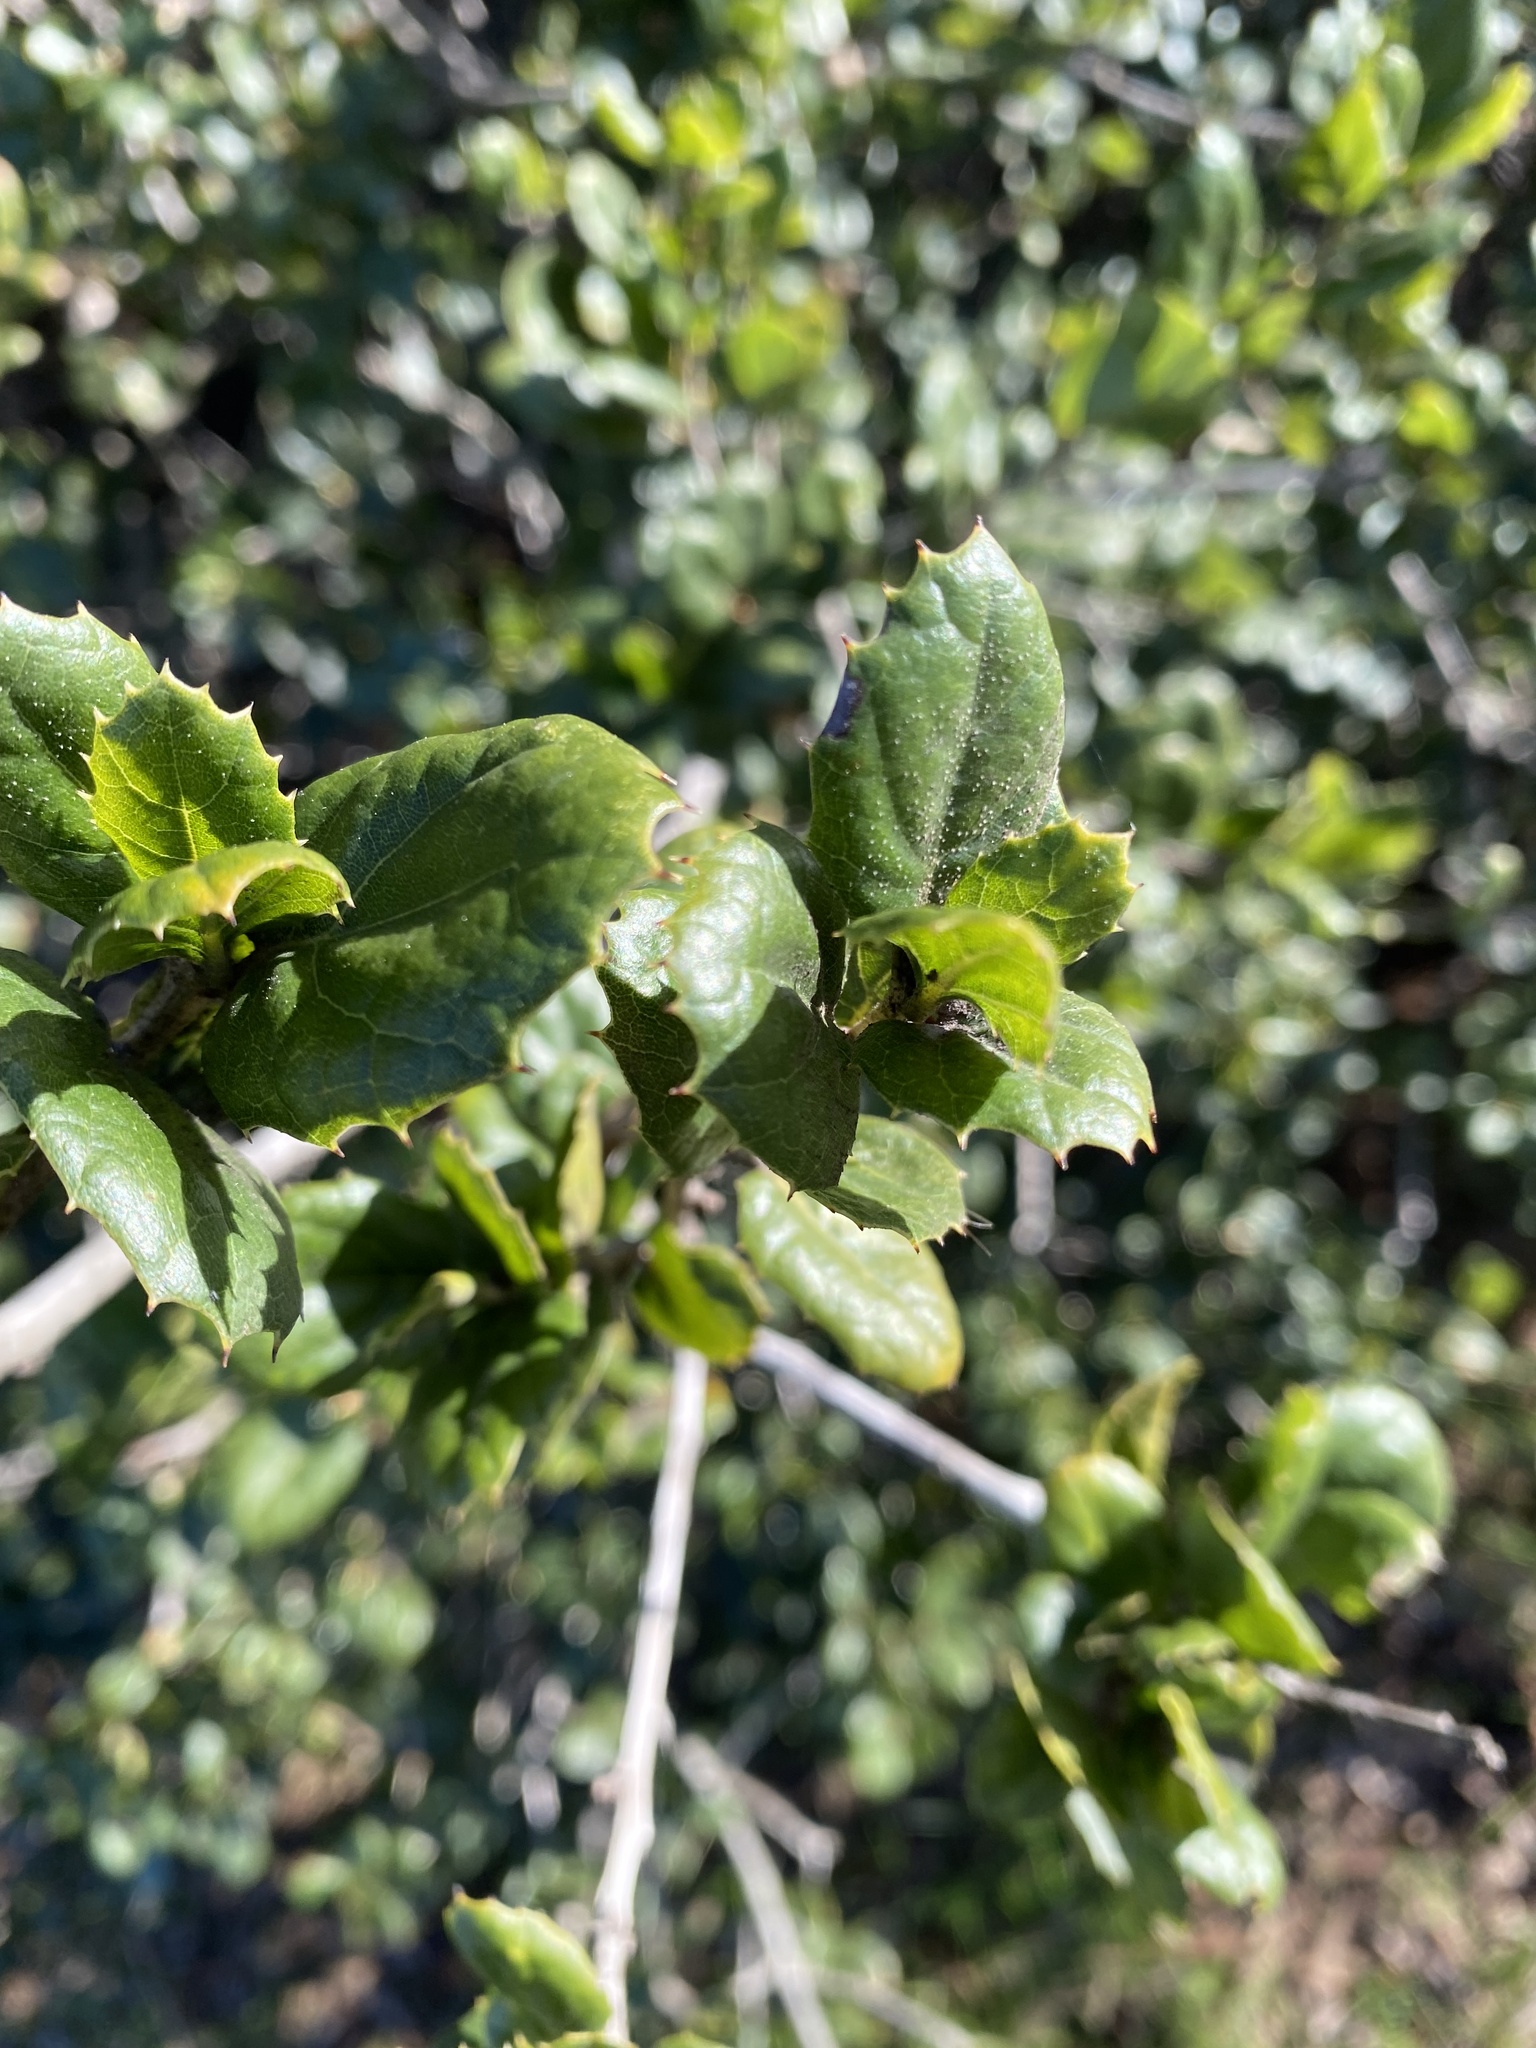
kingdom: Plantae
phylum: Tracheophyta
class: Magnoliopsida
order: Fagales
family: Fagaceae
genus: Quercus
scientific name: Quercus agrifolia
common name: California live oak
